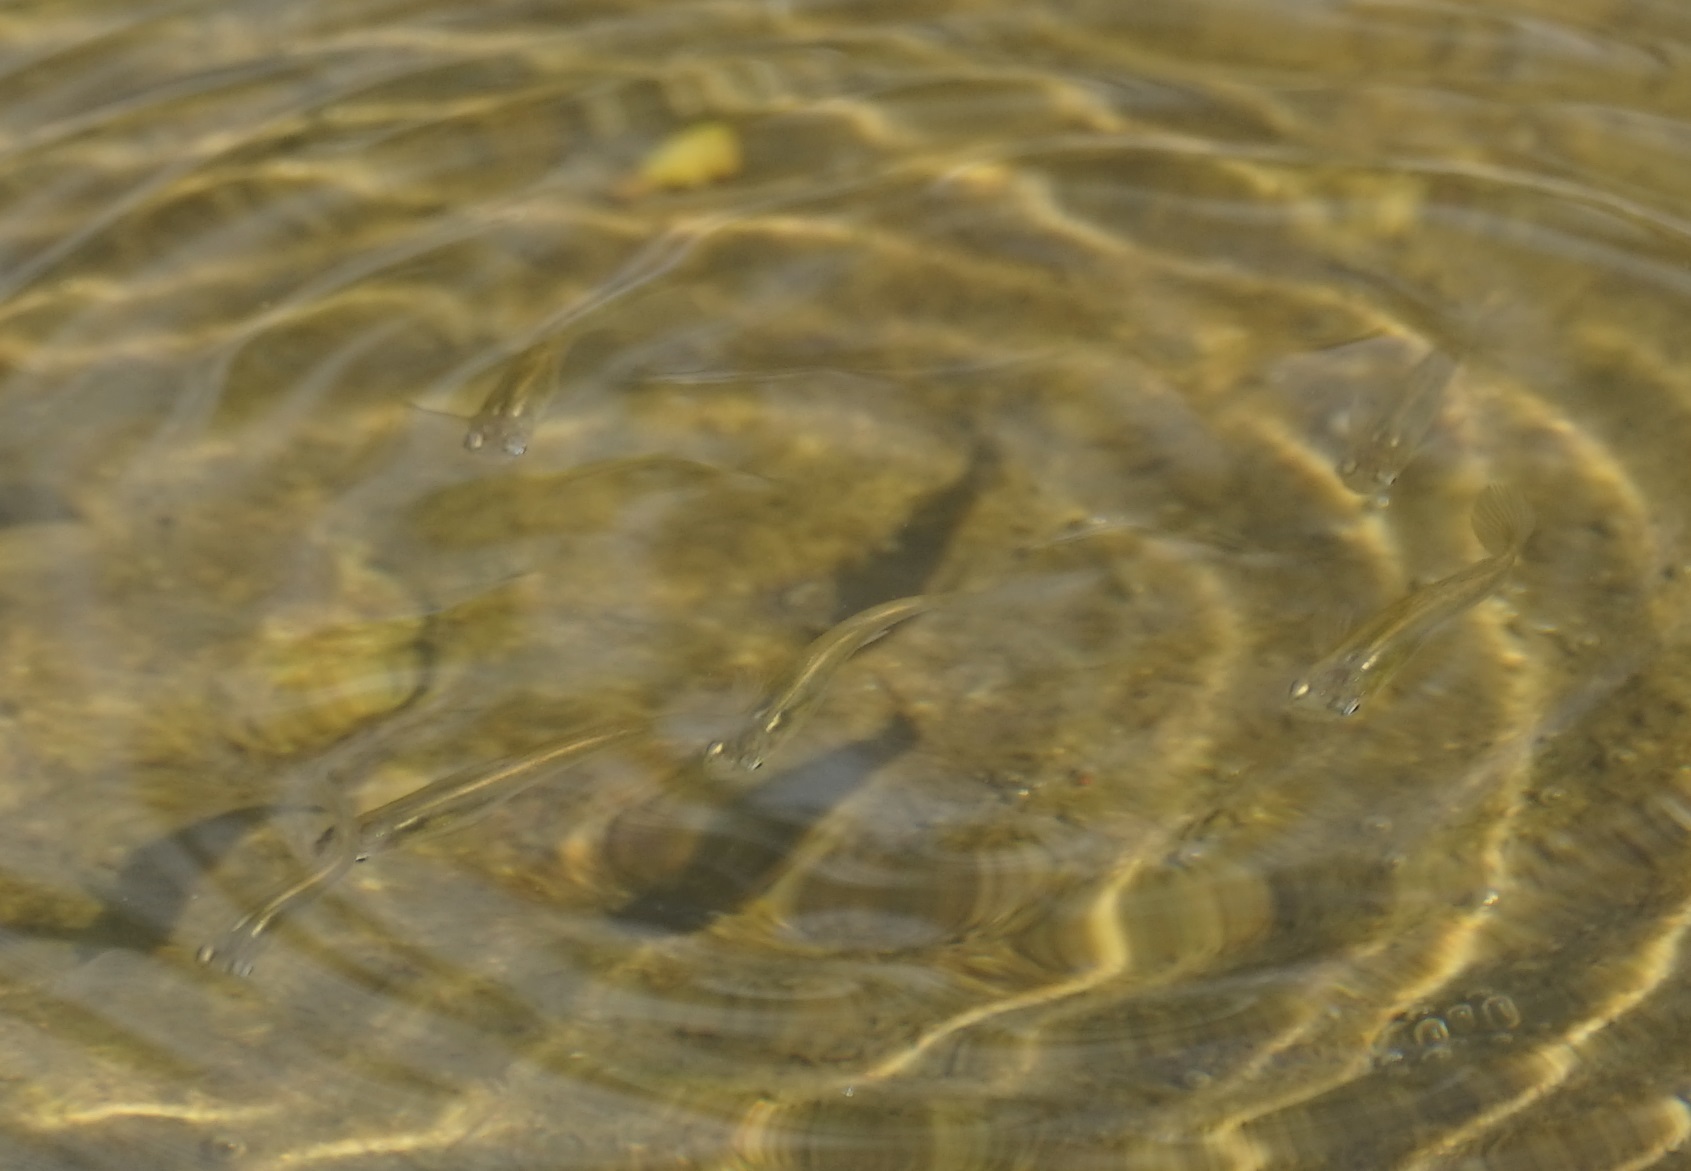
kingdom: Animalia
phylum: Chordata
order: Cyprinodontiformes
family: Poeciliidae
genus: Gambusia
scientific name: Gambusia holbrooki
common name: Eastern mosquitofish
